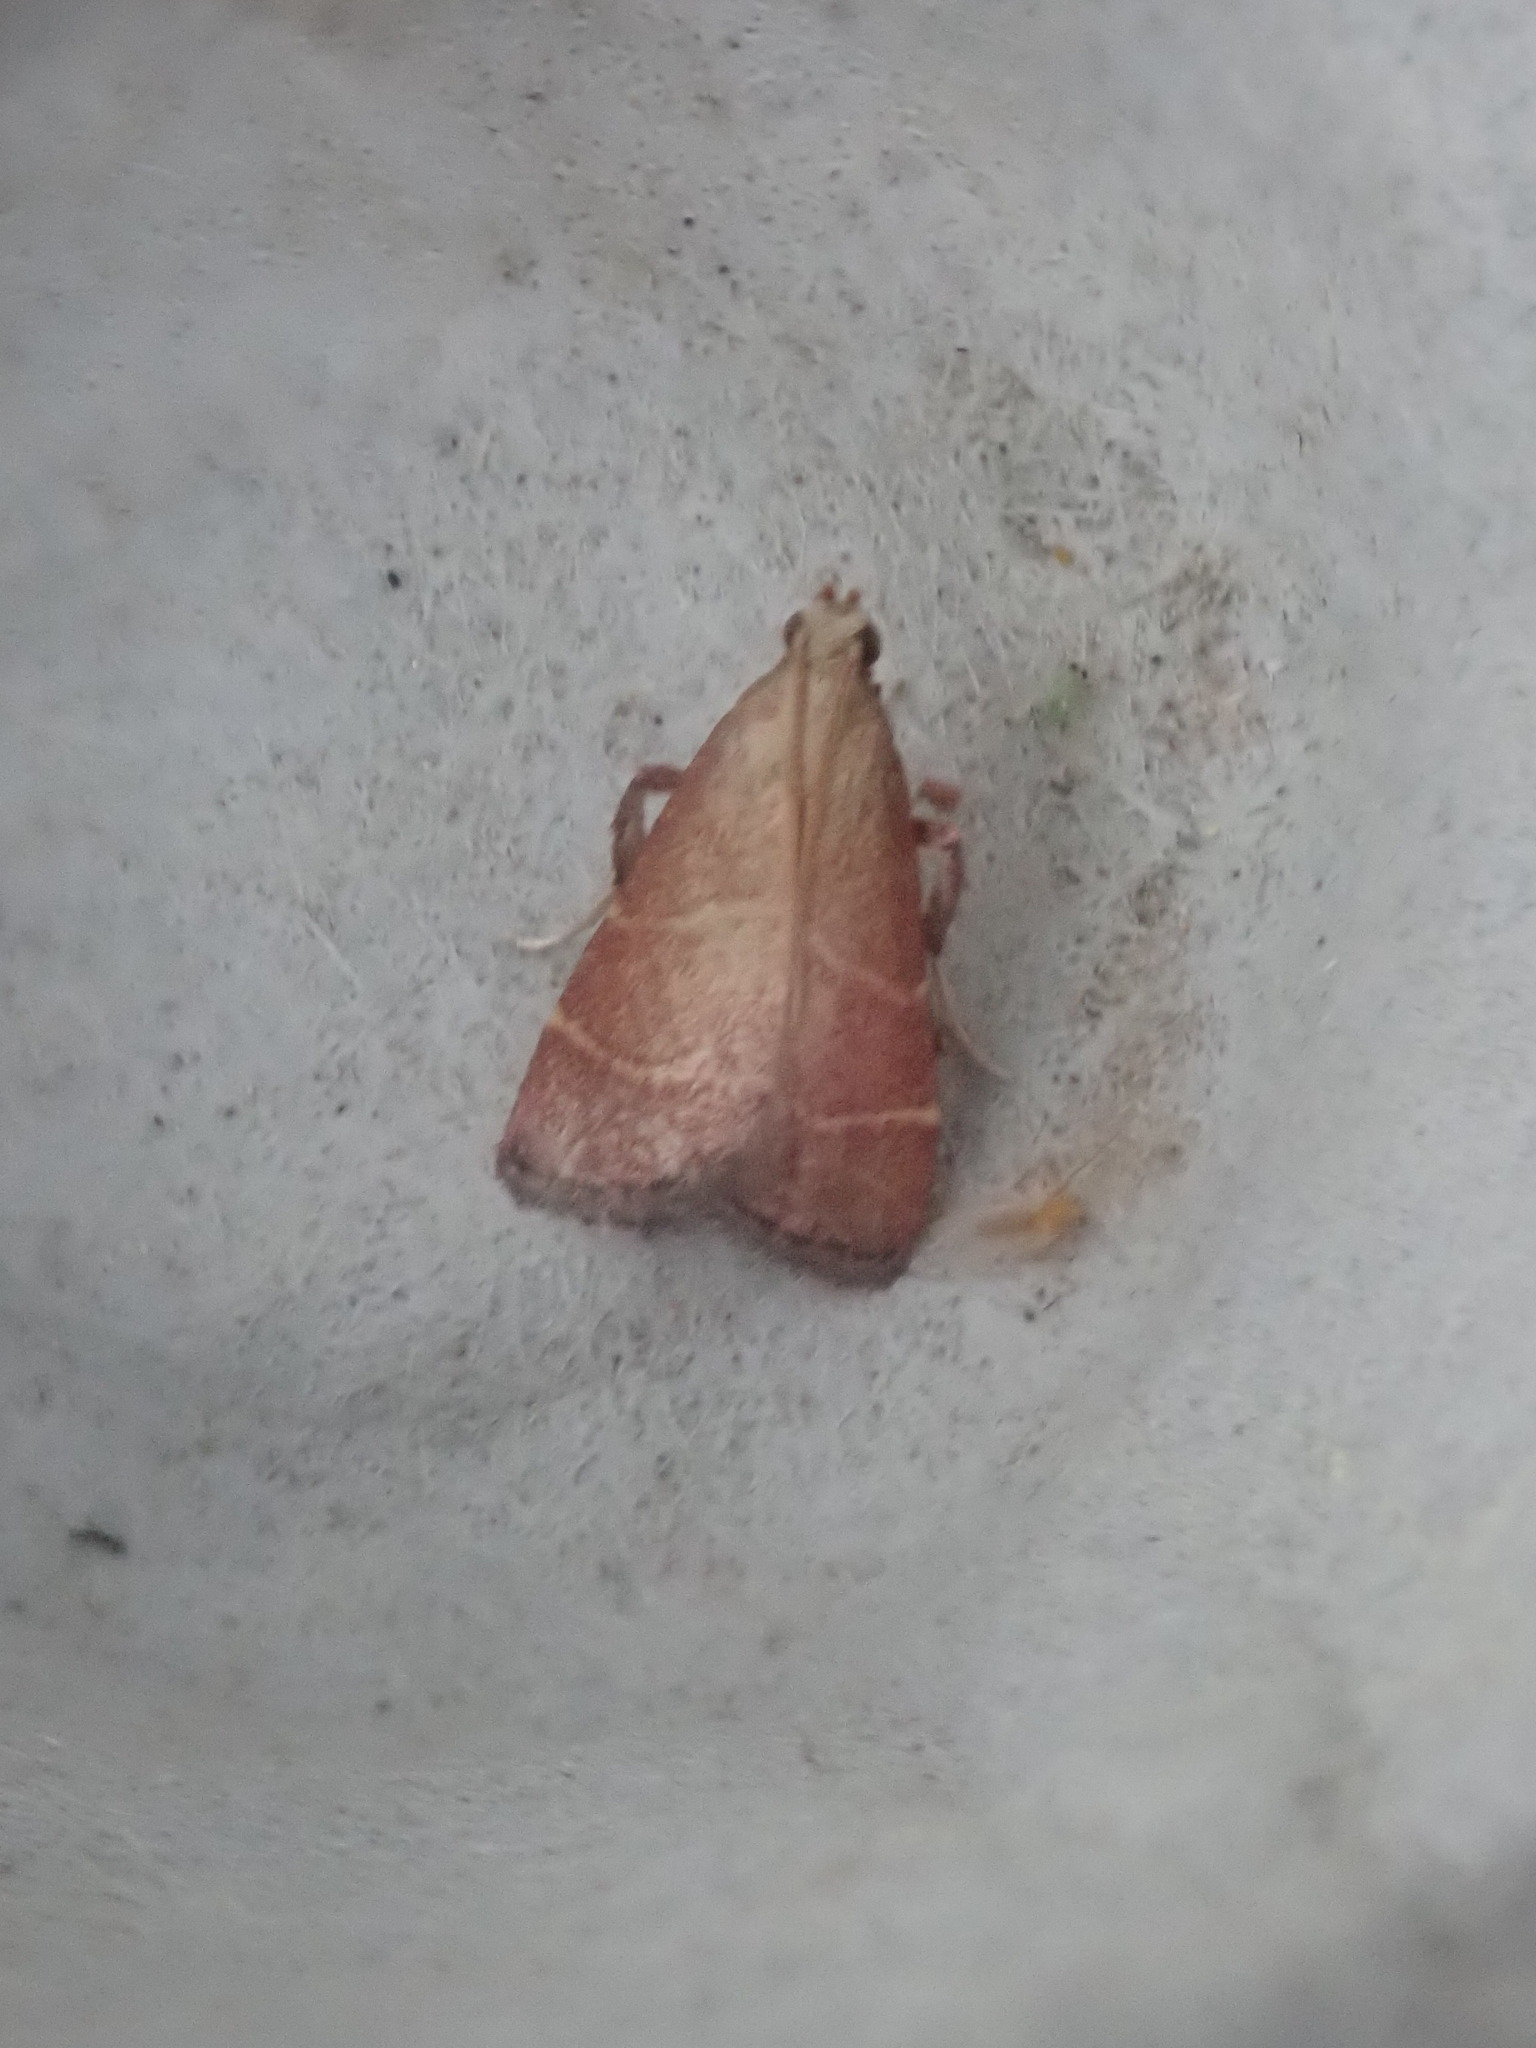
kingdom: Animalia
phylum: Arthropoda
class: Insecta
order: Lepidoptera
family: Pyralidae
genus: Arta
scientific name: Arta statalis
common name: Posturing arta moth
